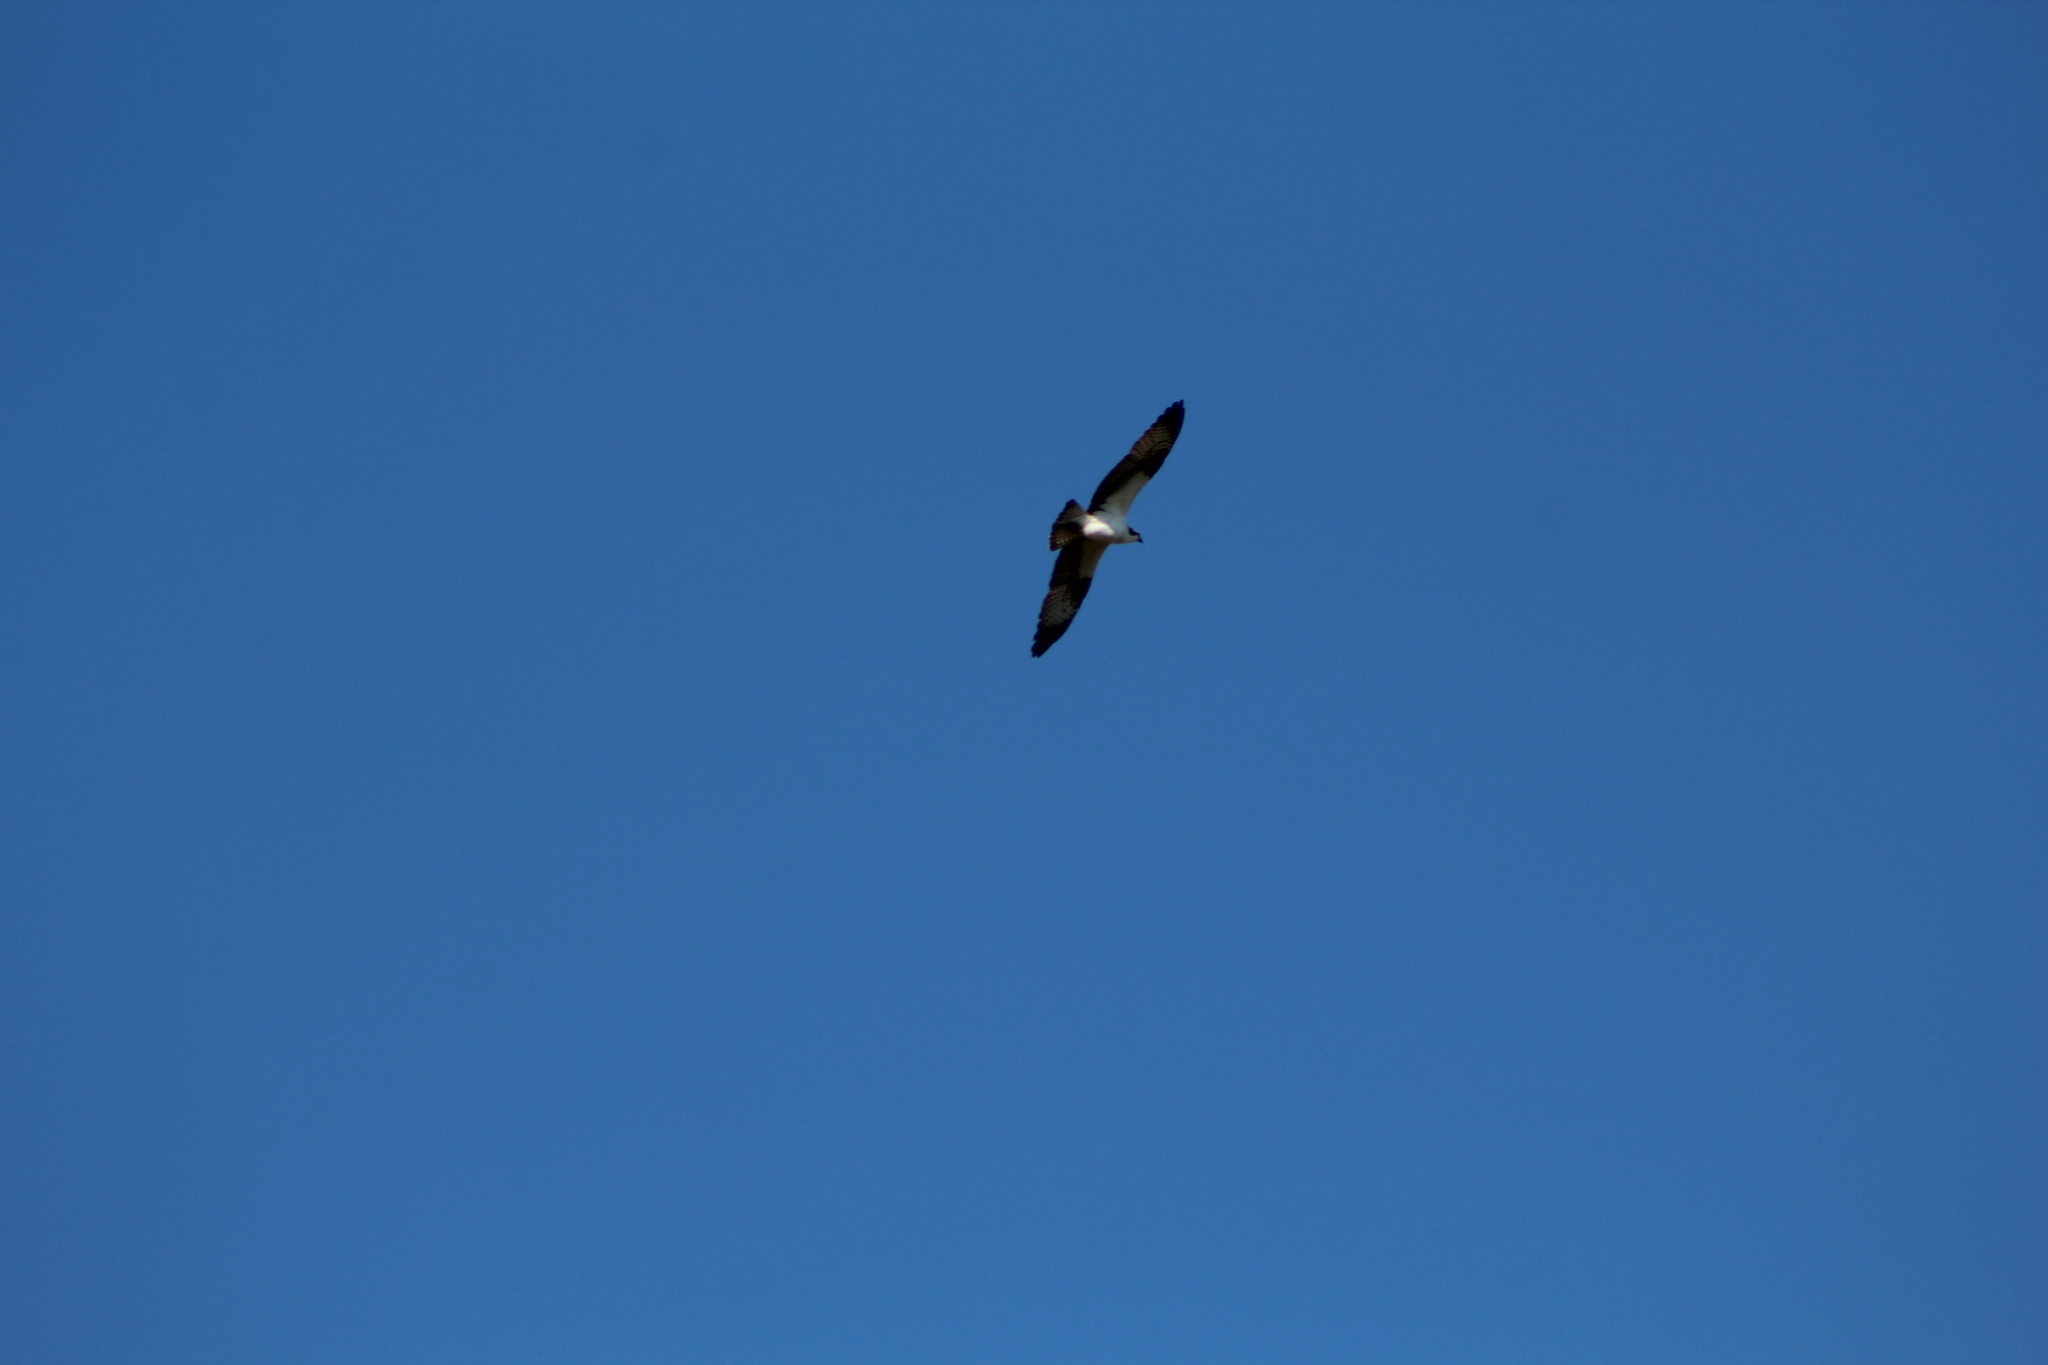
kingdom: Animalia
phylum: Chordata
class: Aves
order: Accipitriformes
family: Pandionidae
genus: Pandion
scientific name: Pandion haliaetus
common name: Osprey
